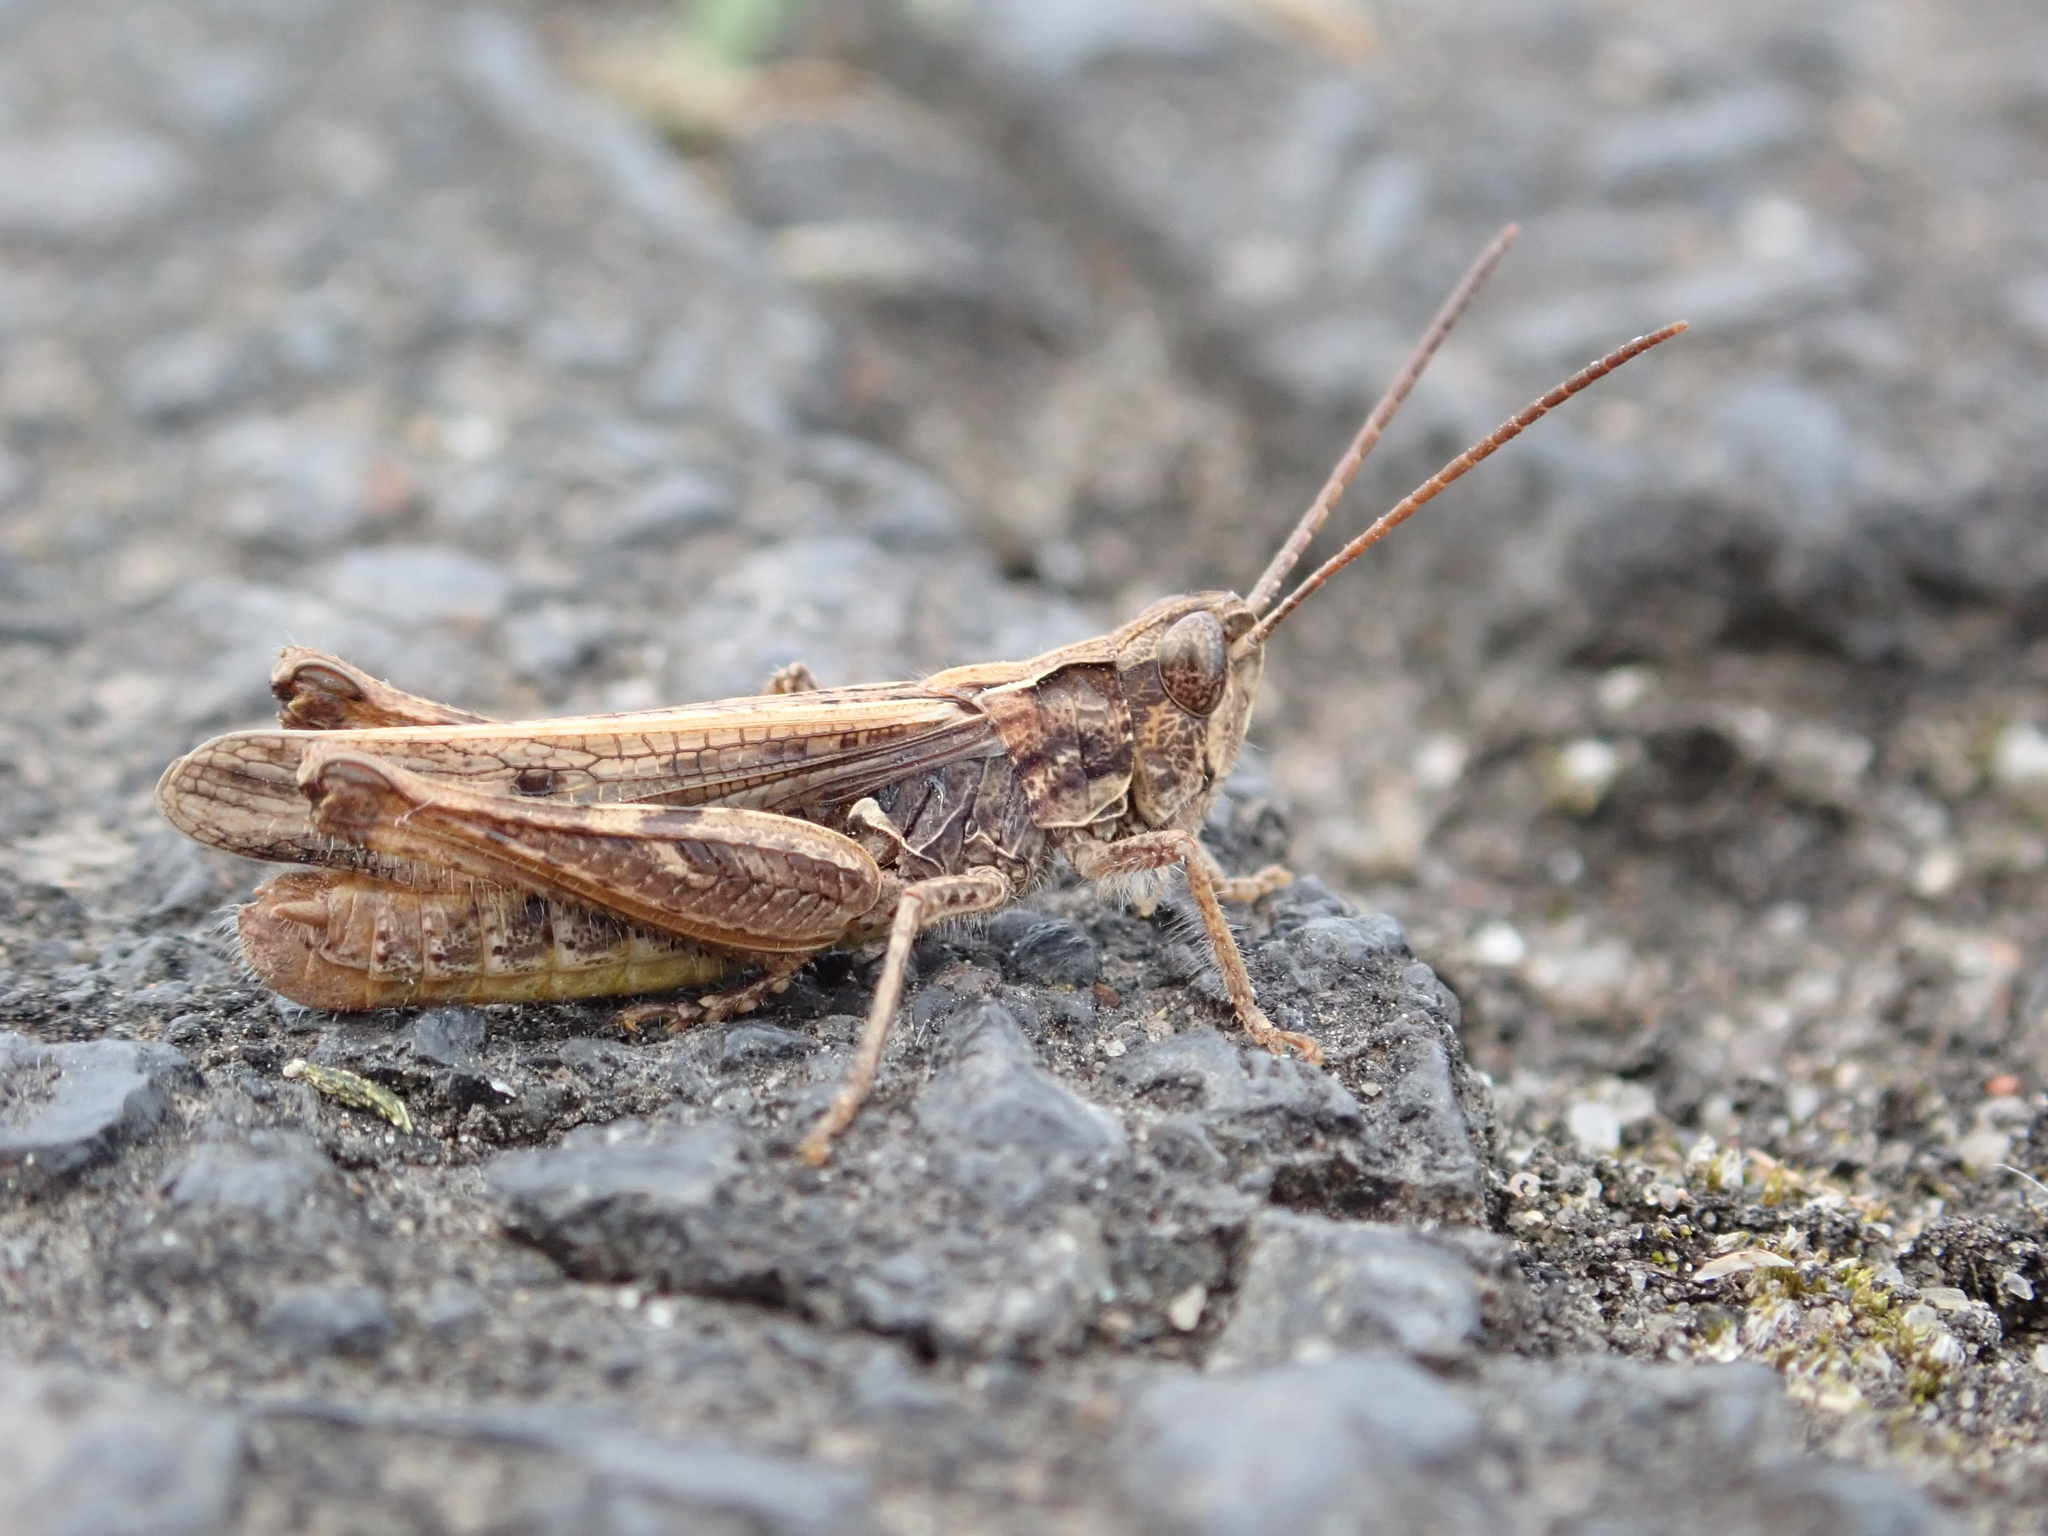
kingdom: Animalia
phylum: Arthropoda
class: Insecta
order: Orthoptera
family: Acrididae
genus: Chorthippus
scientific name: Chorthippus mollis
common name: Lesser field grasshopper
